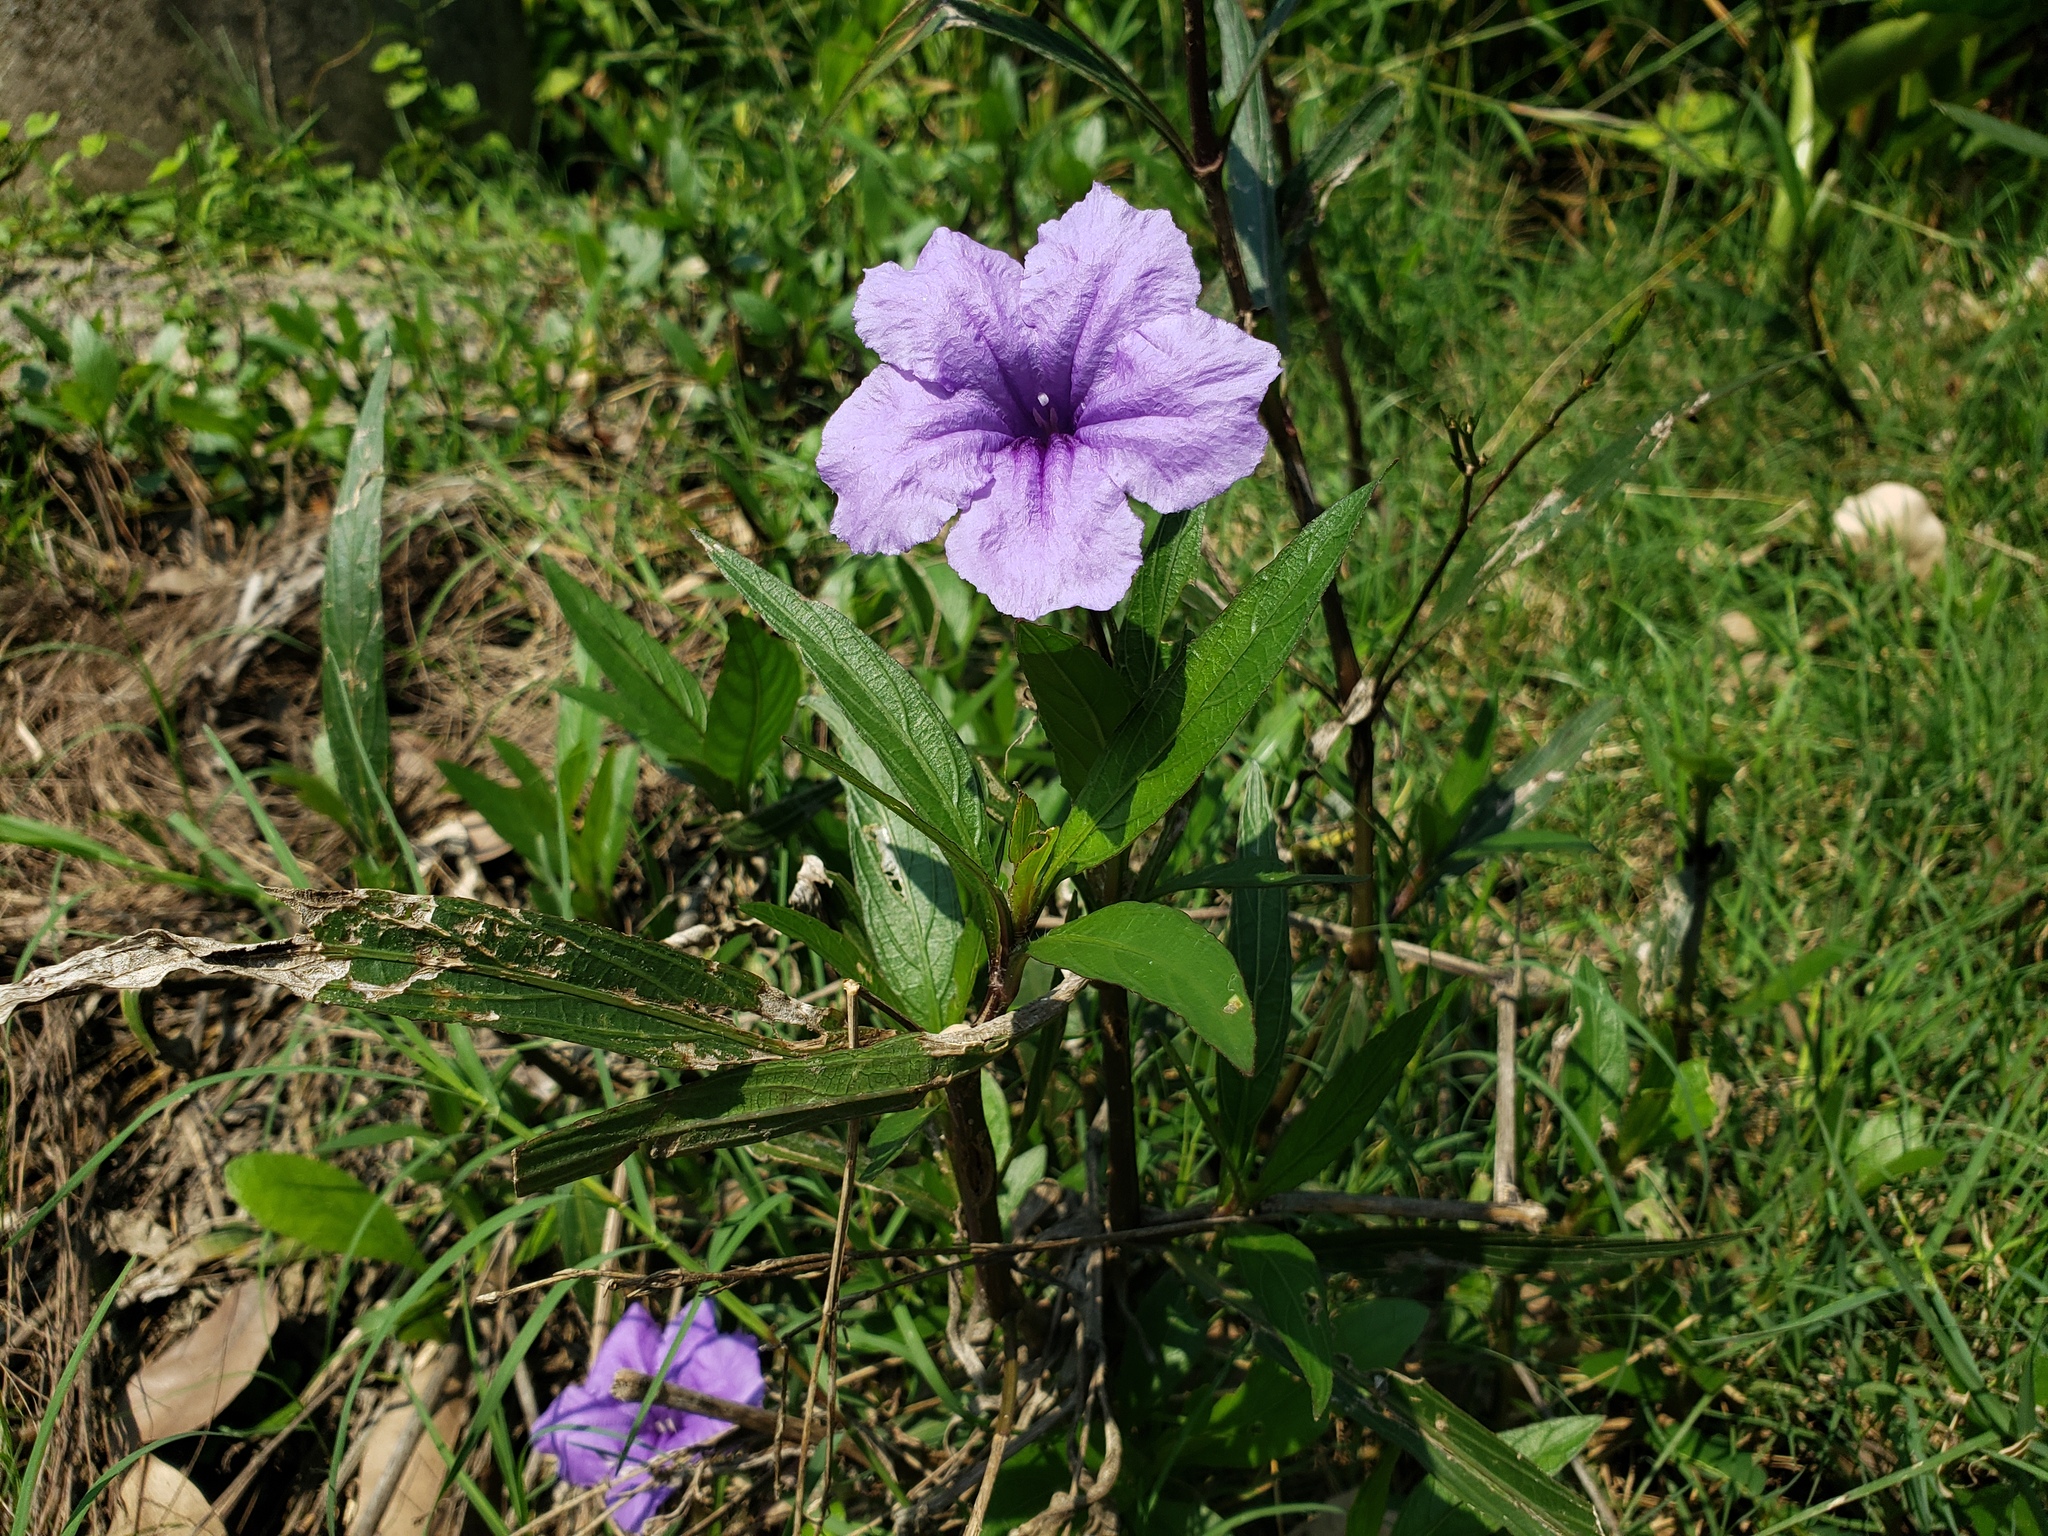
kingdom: Plantae
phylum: Tracheophyta
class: Magnoliopsida
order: Lamiales
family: Acanthaceae
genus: Ruellia
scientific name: Ruellia simplex
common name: Softseed wild petunia
